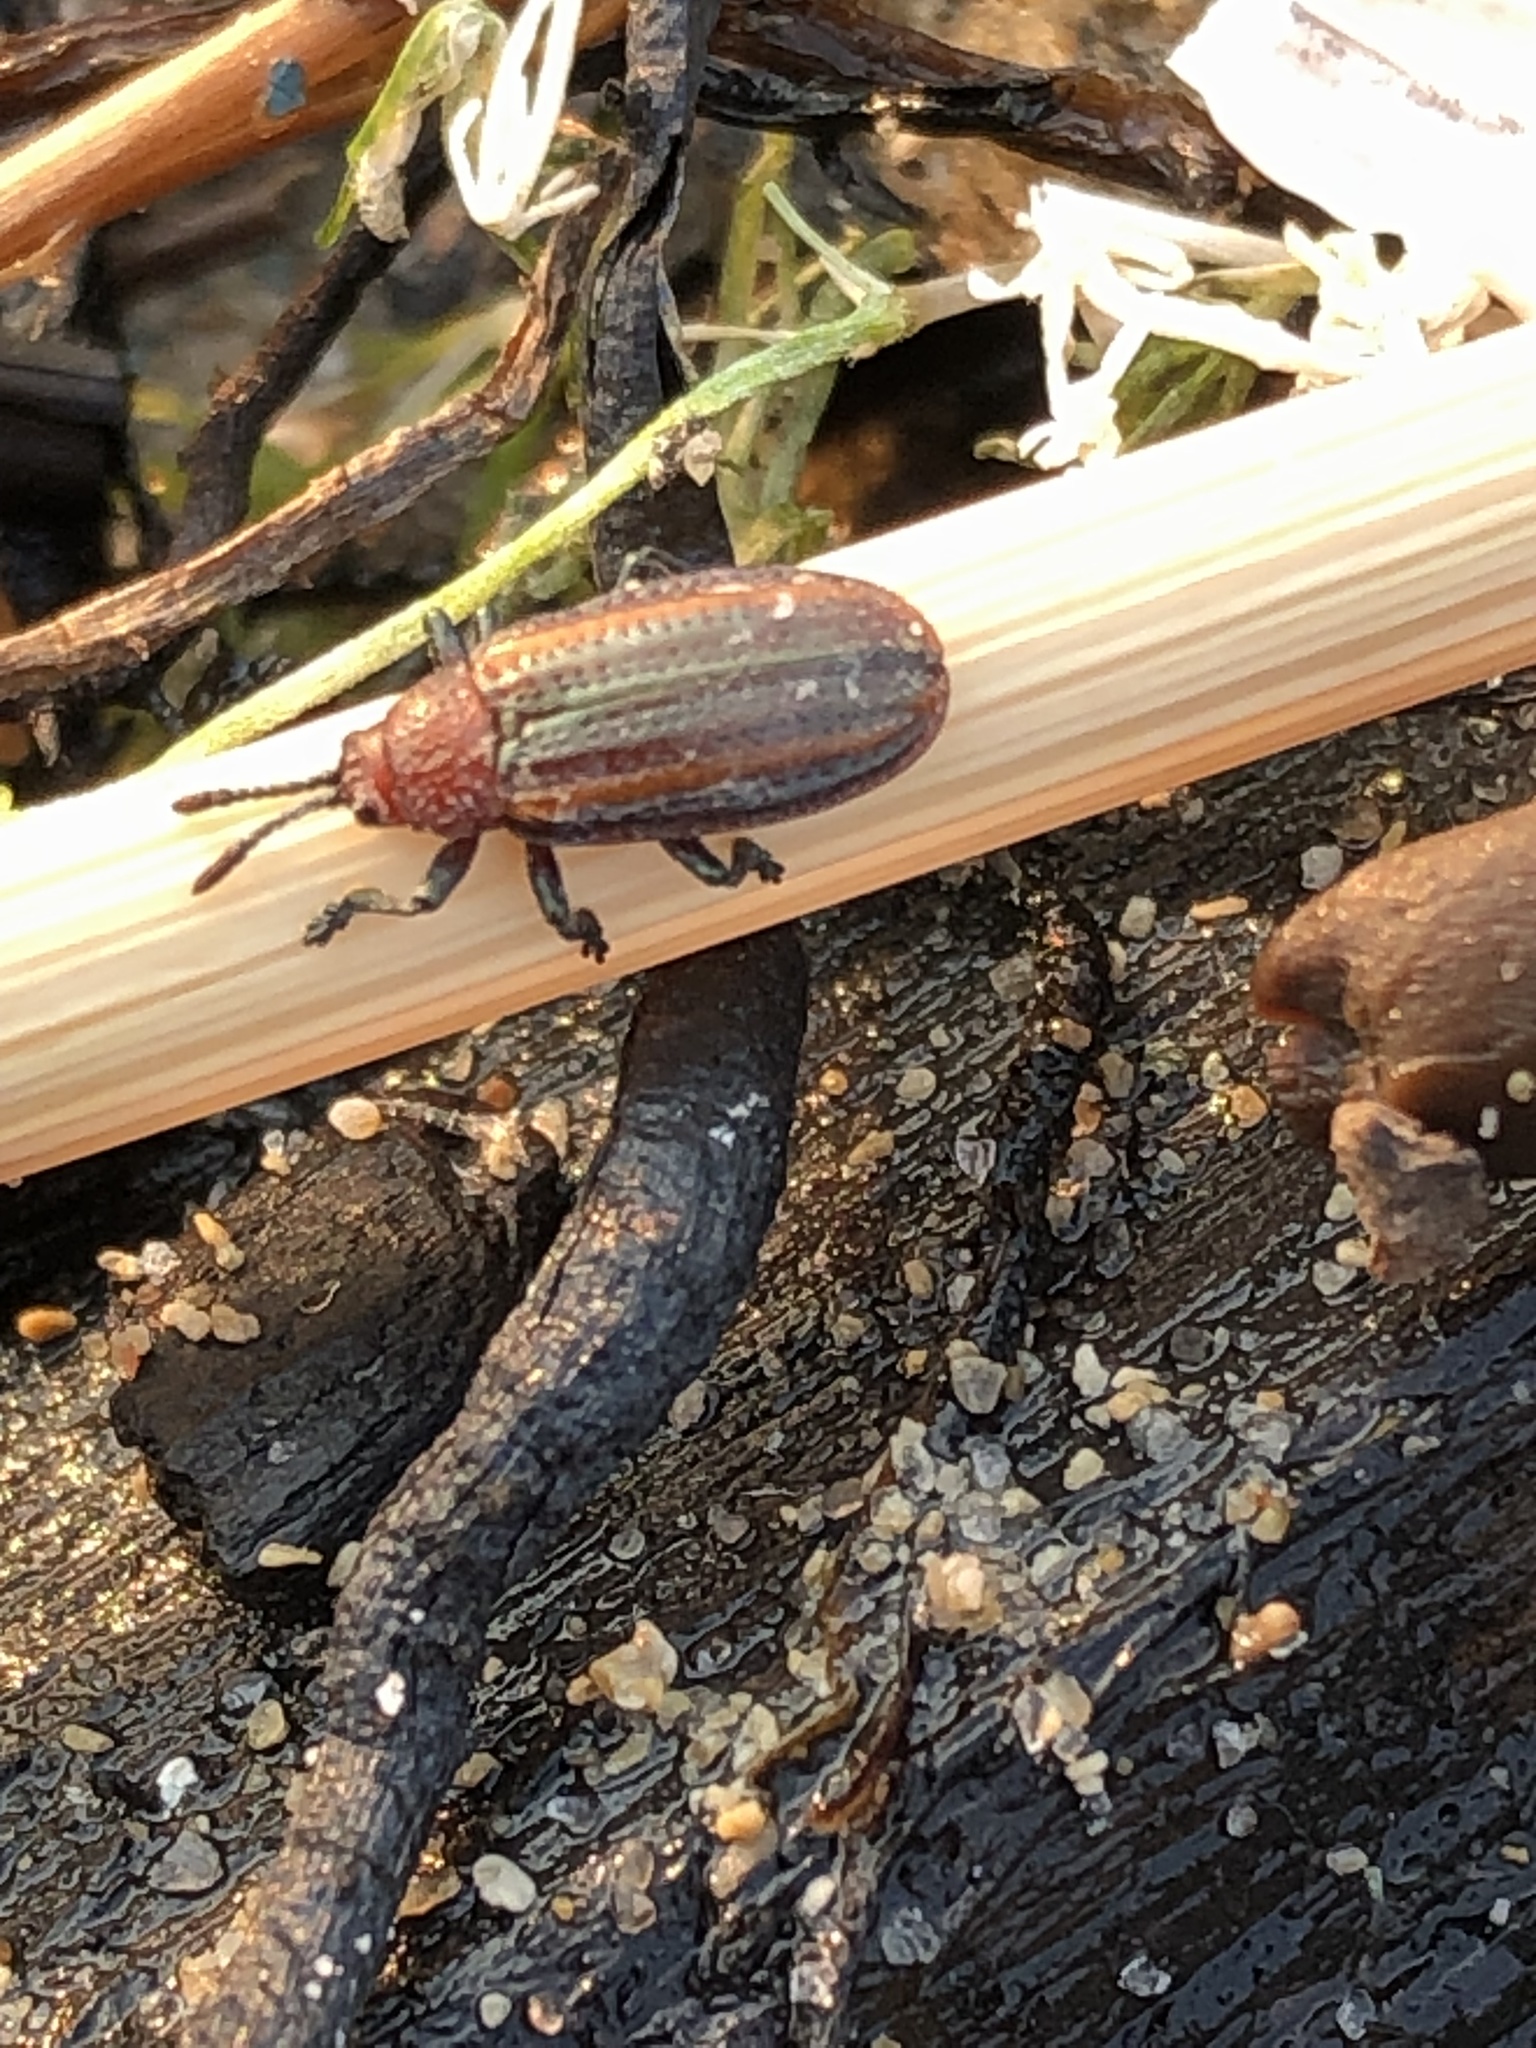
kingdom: Animalia
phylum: Arthropoda
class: Insecta
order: Coleoptera
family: Chrysomelidae
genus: Microrhopala
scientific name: Microrhopala vittata
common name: Goldenrod leaf miner beetle
